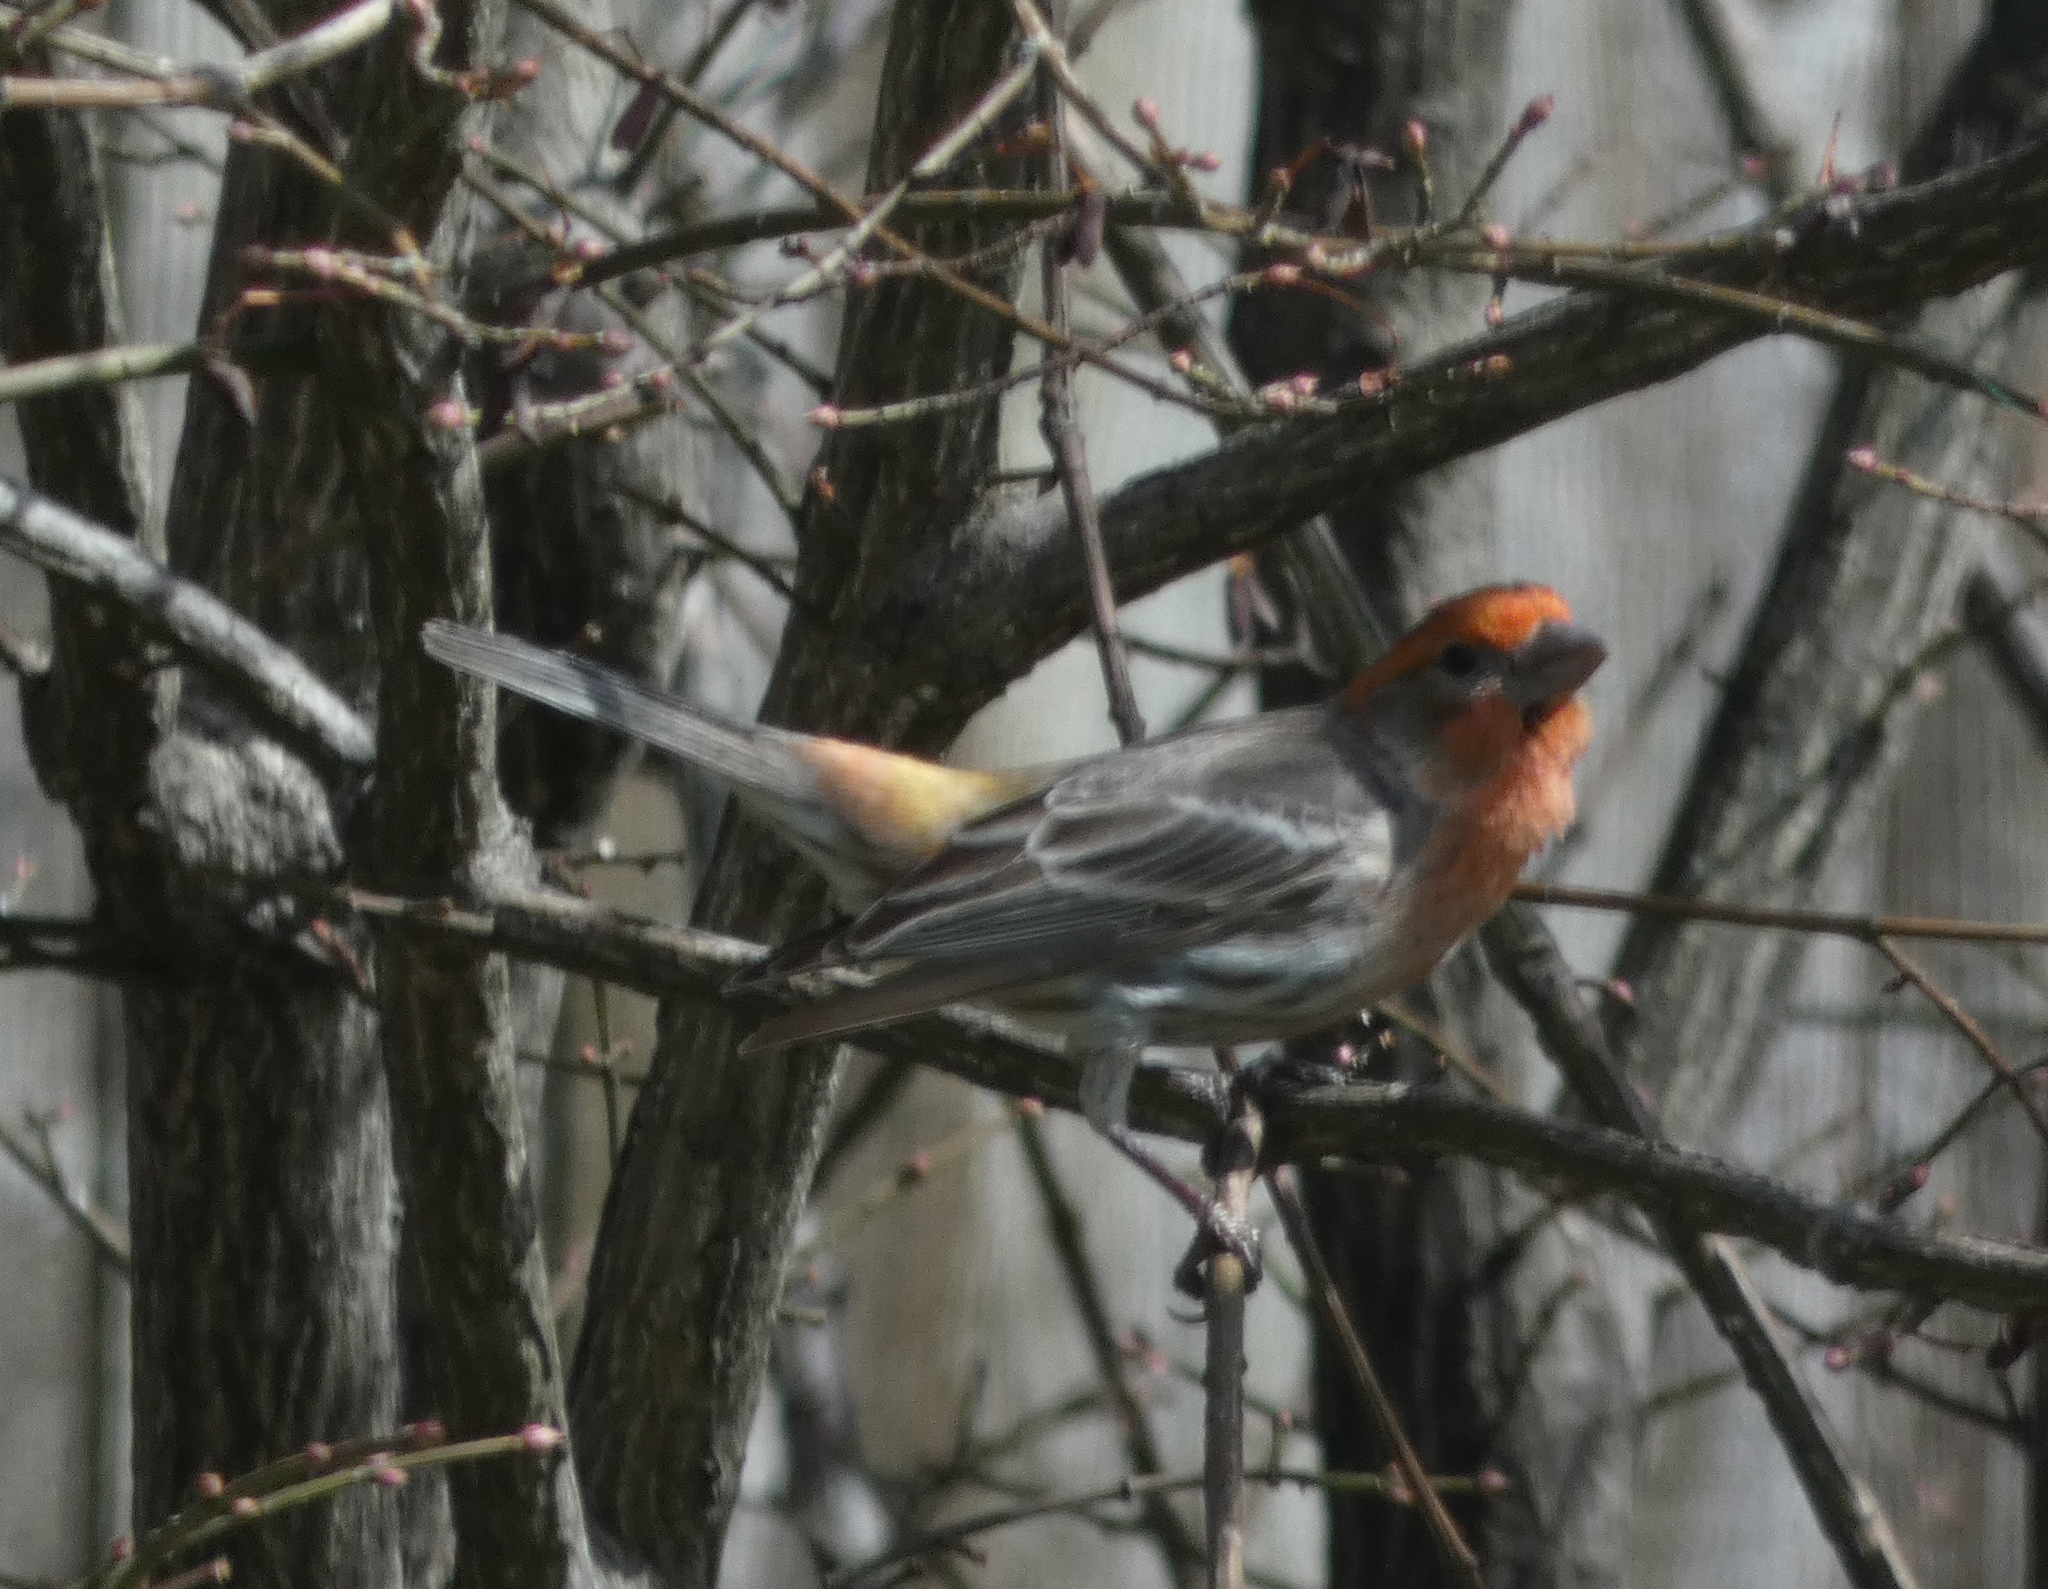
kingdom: Animalia
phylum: Chordata
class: Aves
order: Passeriformes
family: Fringillidae
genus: Haemorhous
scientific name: Haemorhous mexicanus
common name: House finch
